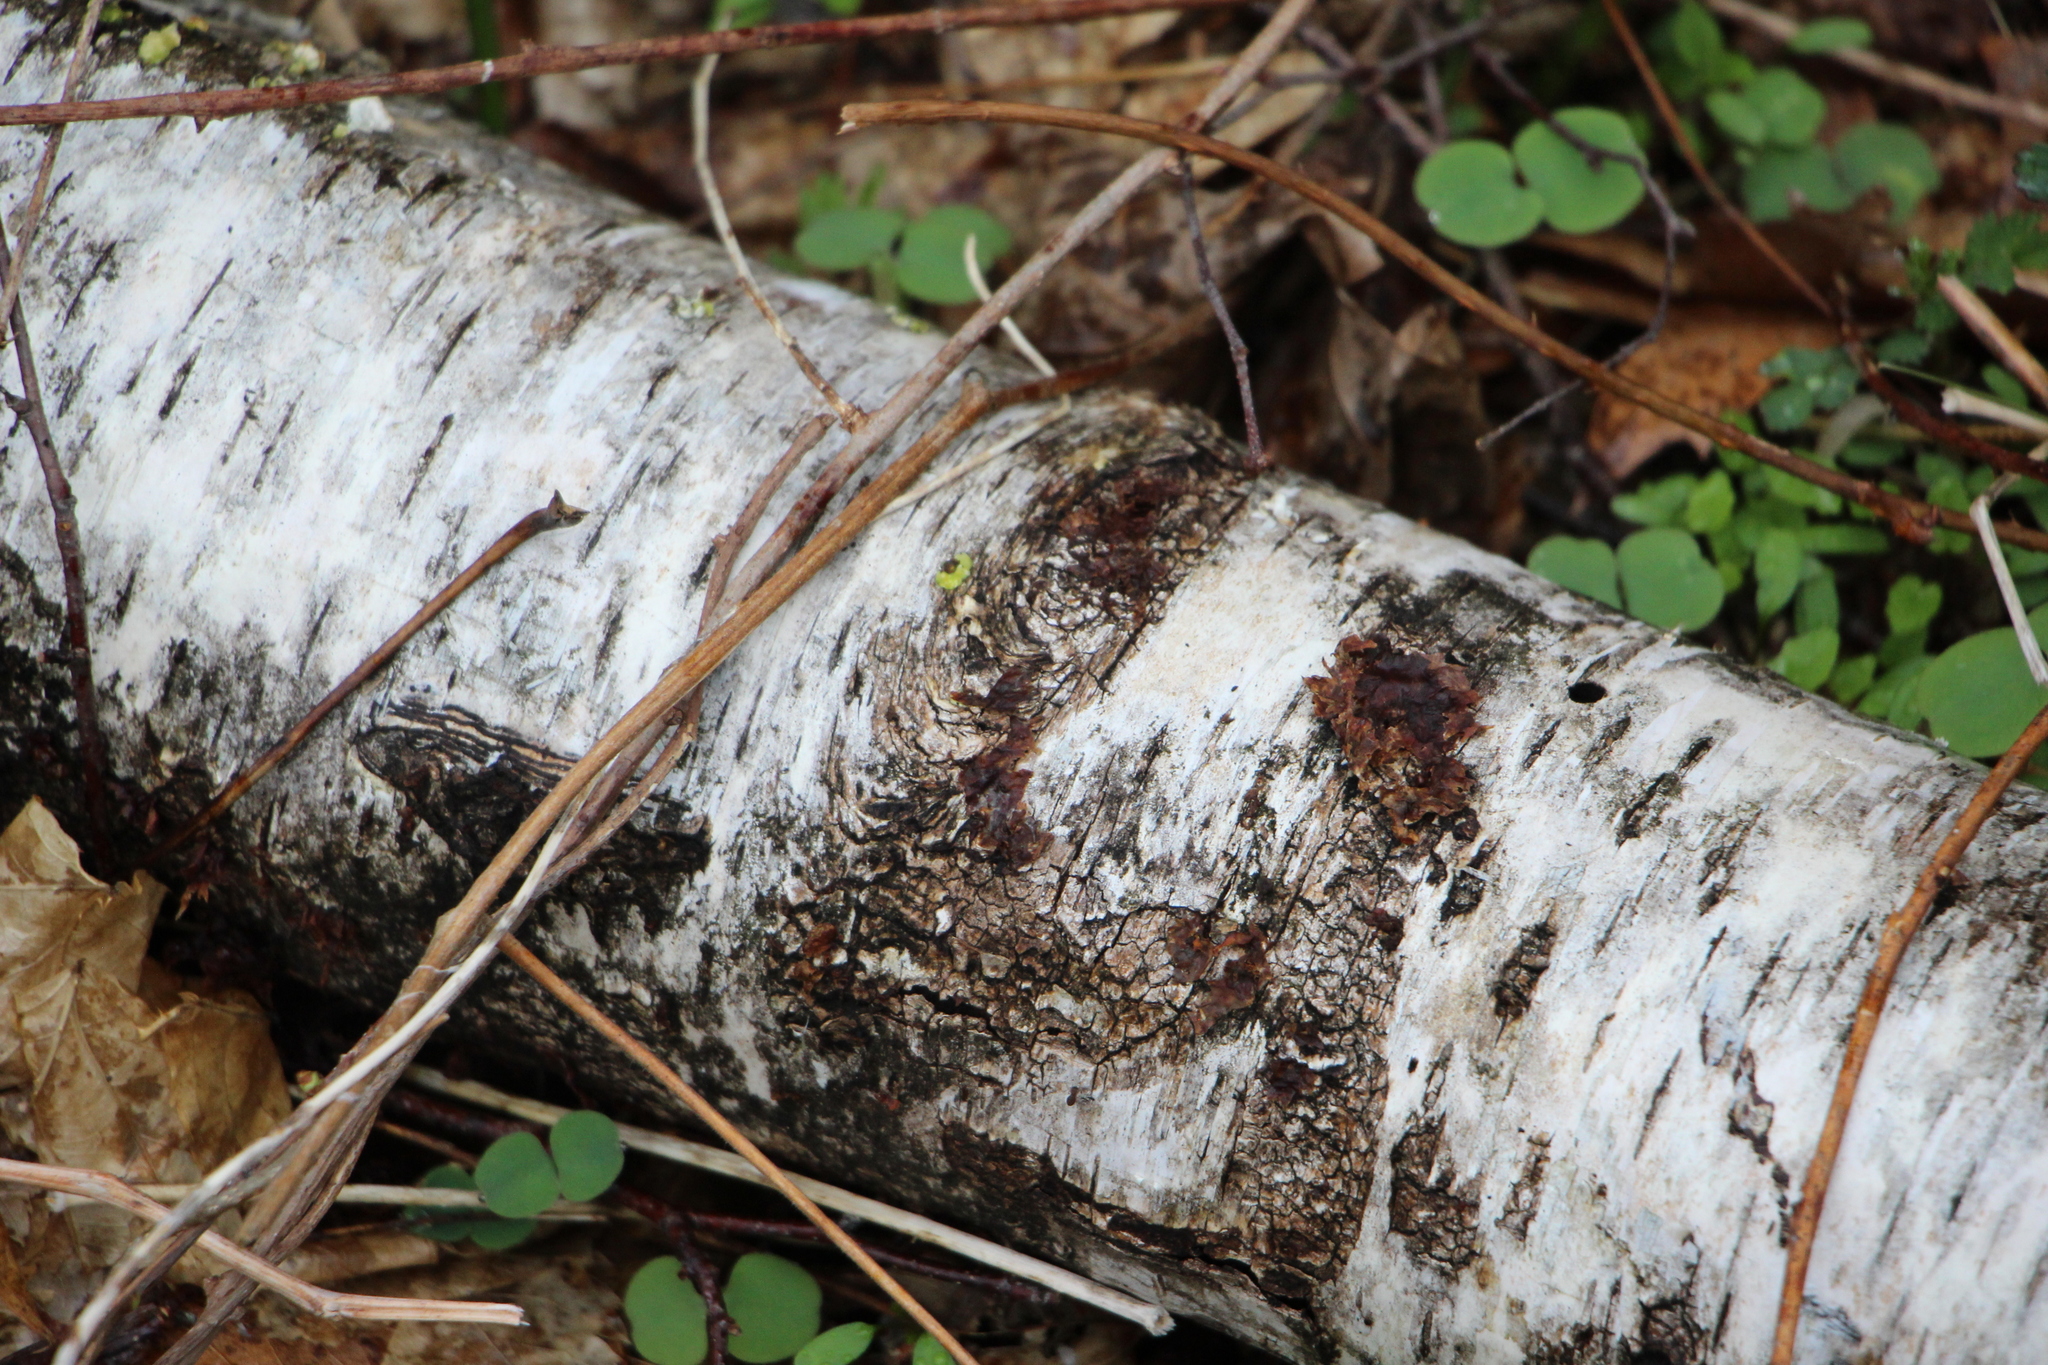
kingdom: Plantae
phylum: Tracheophyta
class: Magnoliopsida
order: Fagales
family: Betulaceae
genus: Betula
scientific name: Betula papyrifera
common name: Paper birch
